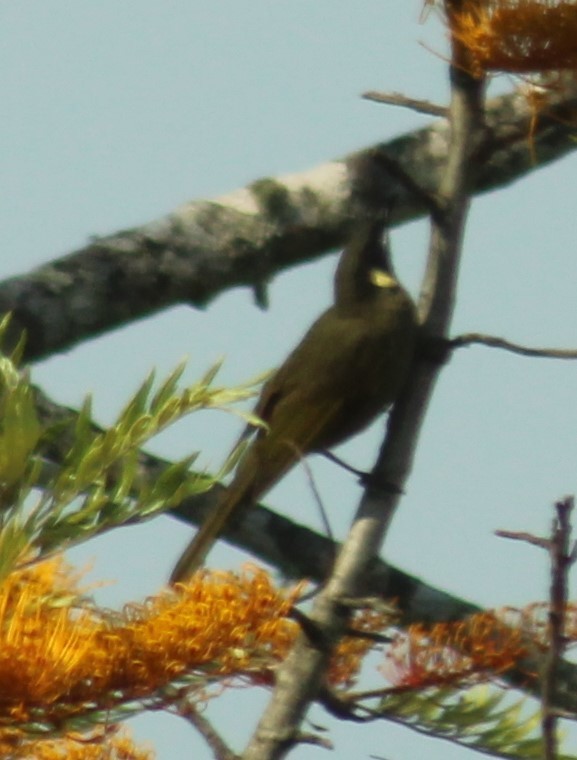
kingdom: Animalia
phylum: Chordata
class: Aves
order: Passeriformes
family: Meliphagidae
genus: Meliphaga
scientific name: Meliphaga lewinii
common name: Lewin's honeyeater
